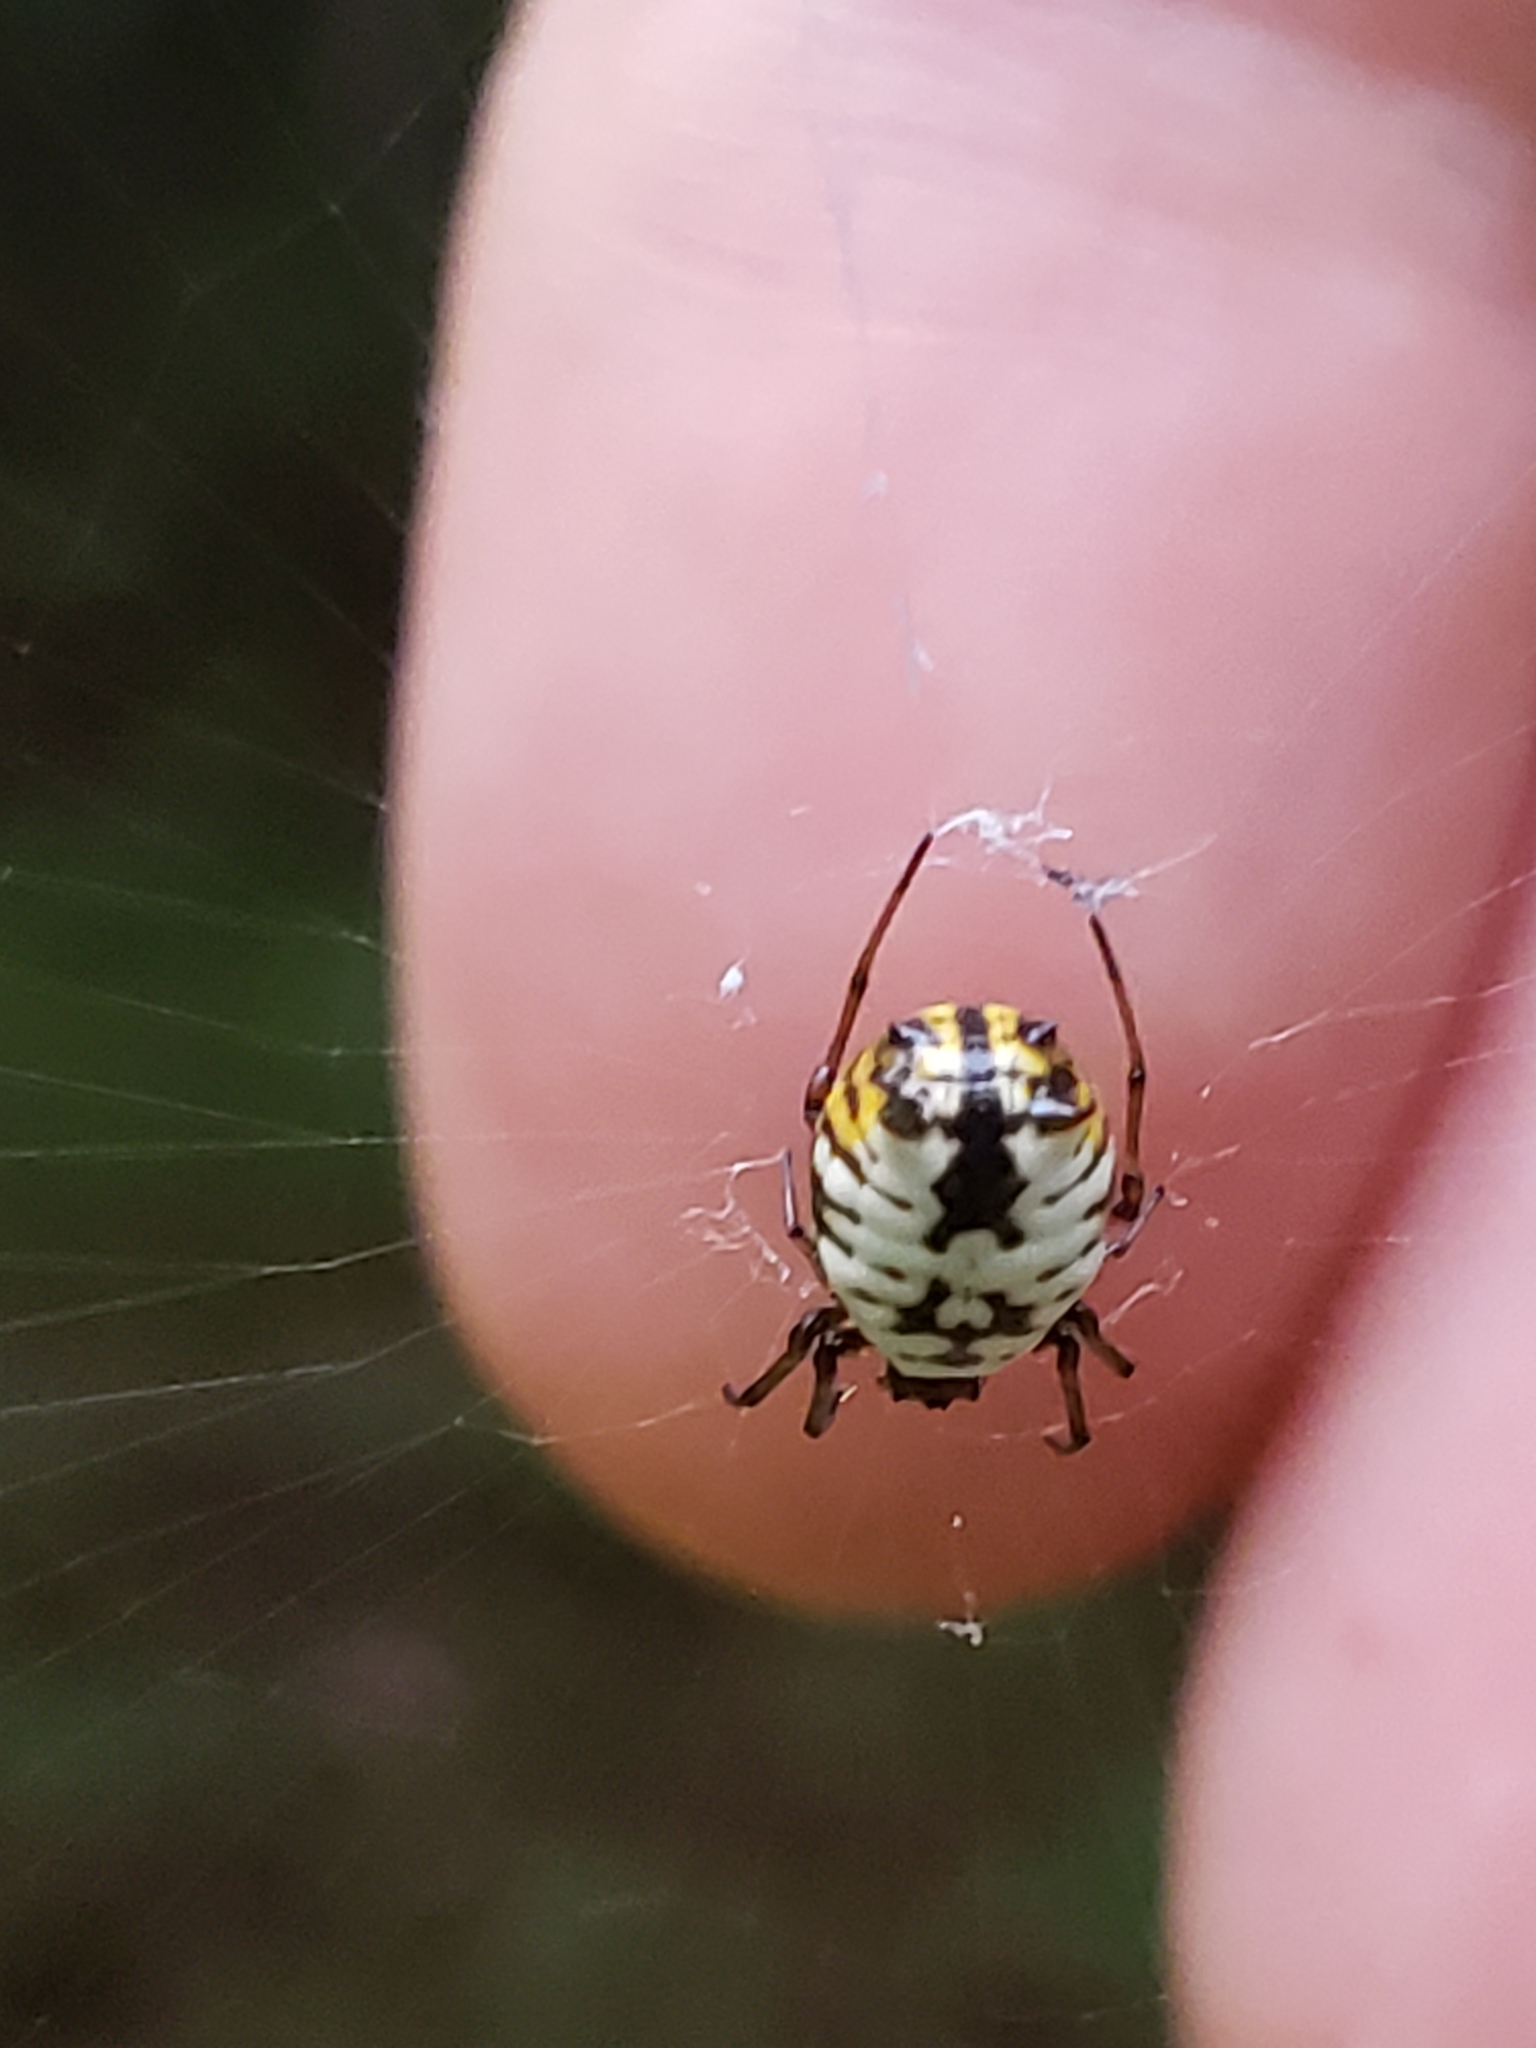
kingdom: Animalia
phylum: Arthropoda
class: Arachnida
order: Araneae
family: Araneidae
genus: Micrathena
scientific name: Micrathena mitrata
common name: Orb weavers
